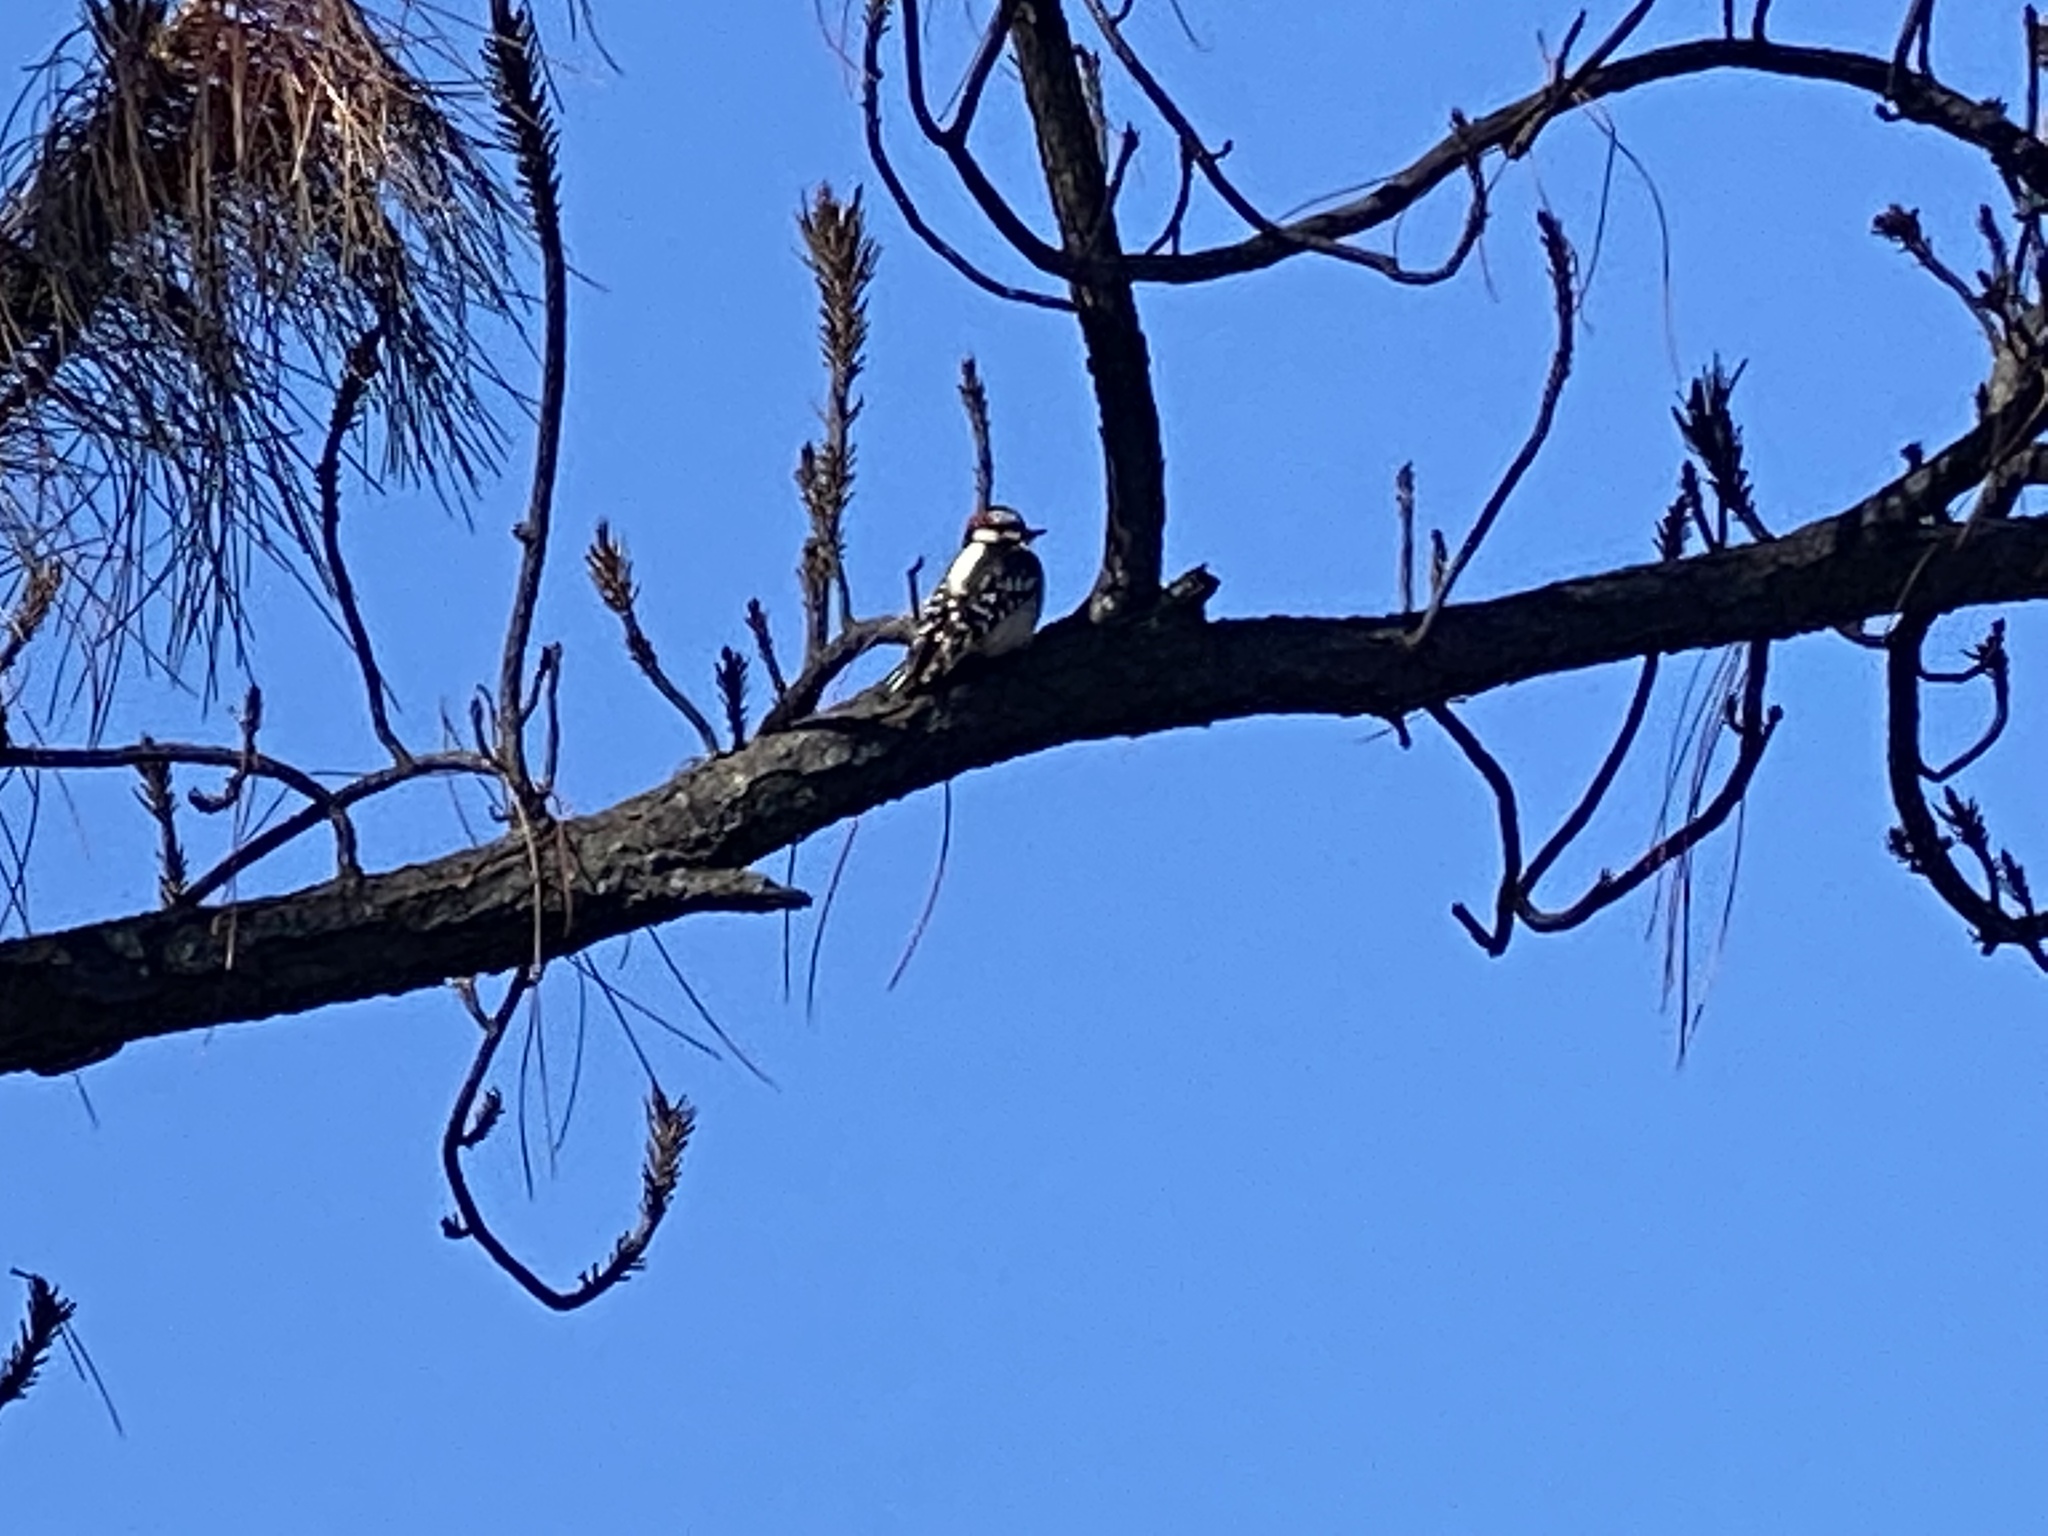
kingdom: Animalia
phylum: Chordata
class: Aves
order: Piciformes
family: Picidae
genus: Dryobates
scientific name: Dryobates pubescens
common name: Downy woodpecker
